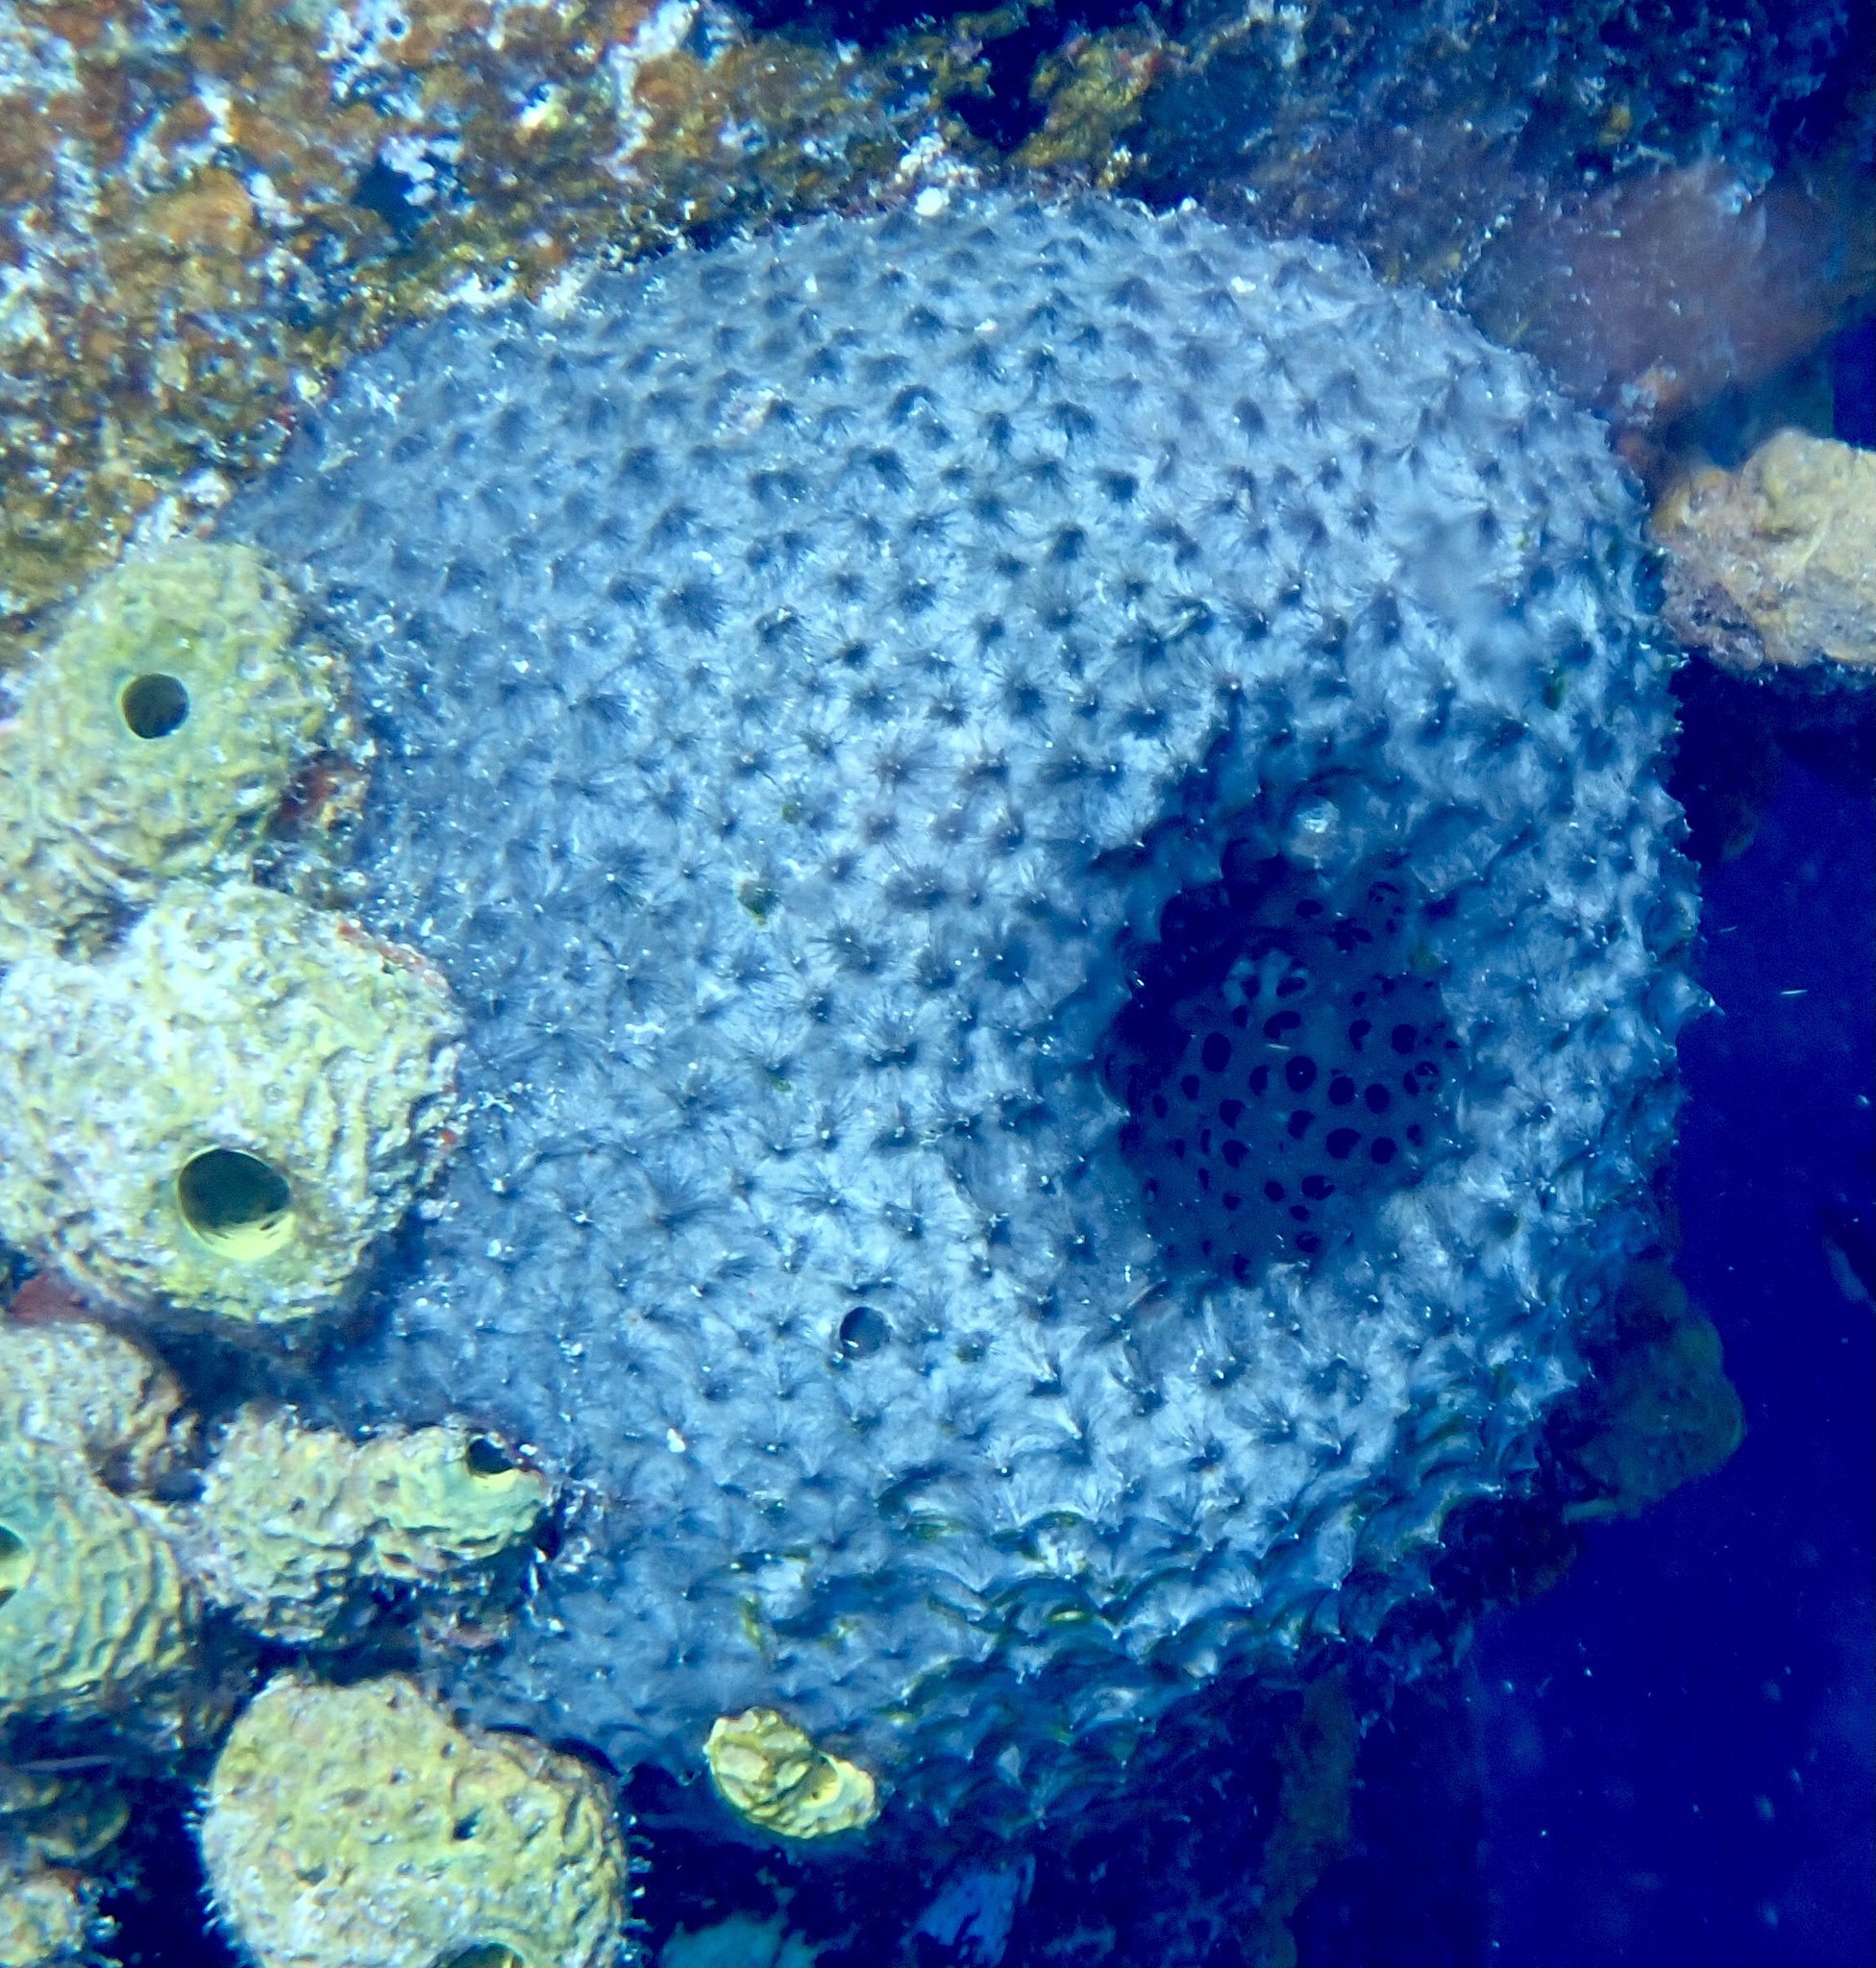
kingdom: Animalia
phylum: Porifera
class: Demospongiae
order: Dictyoceratida
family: Irciniidae
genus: Ircinia
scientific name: Ircinia strobilina
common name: Cake sponge
